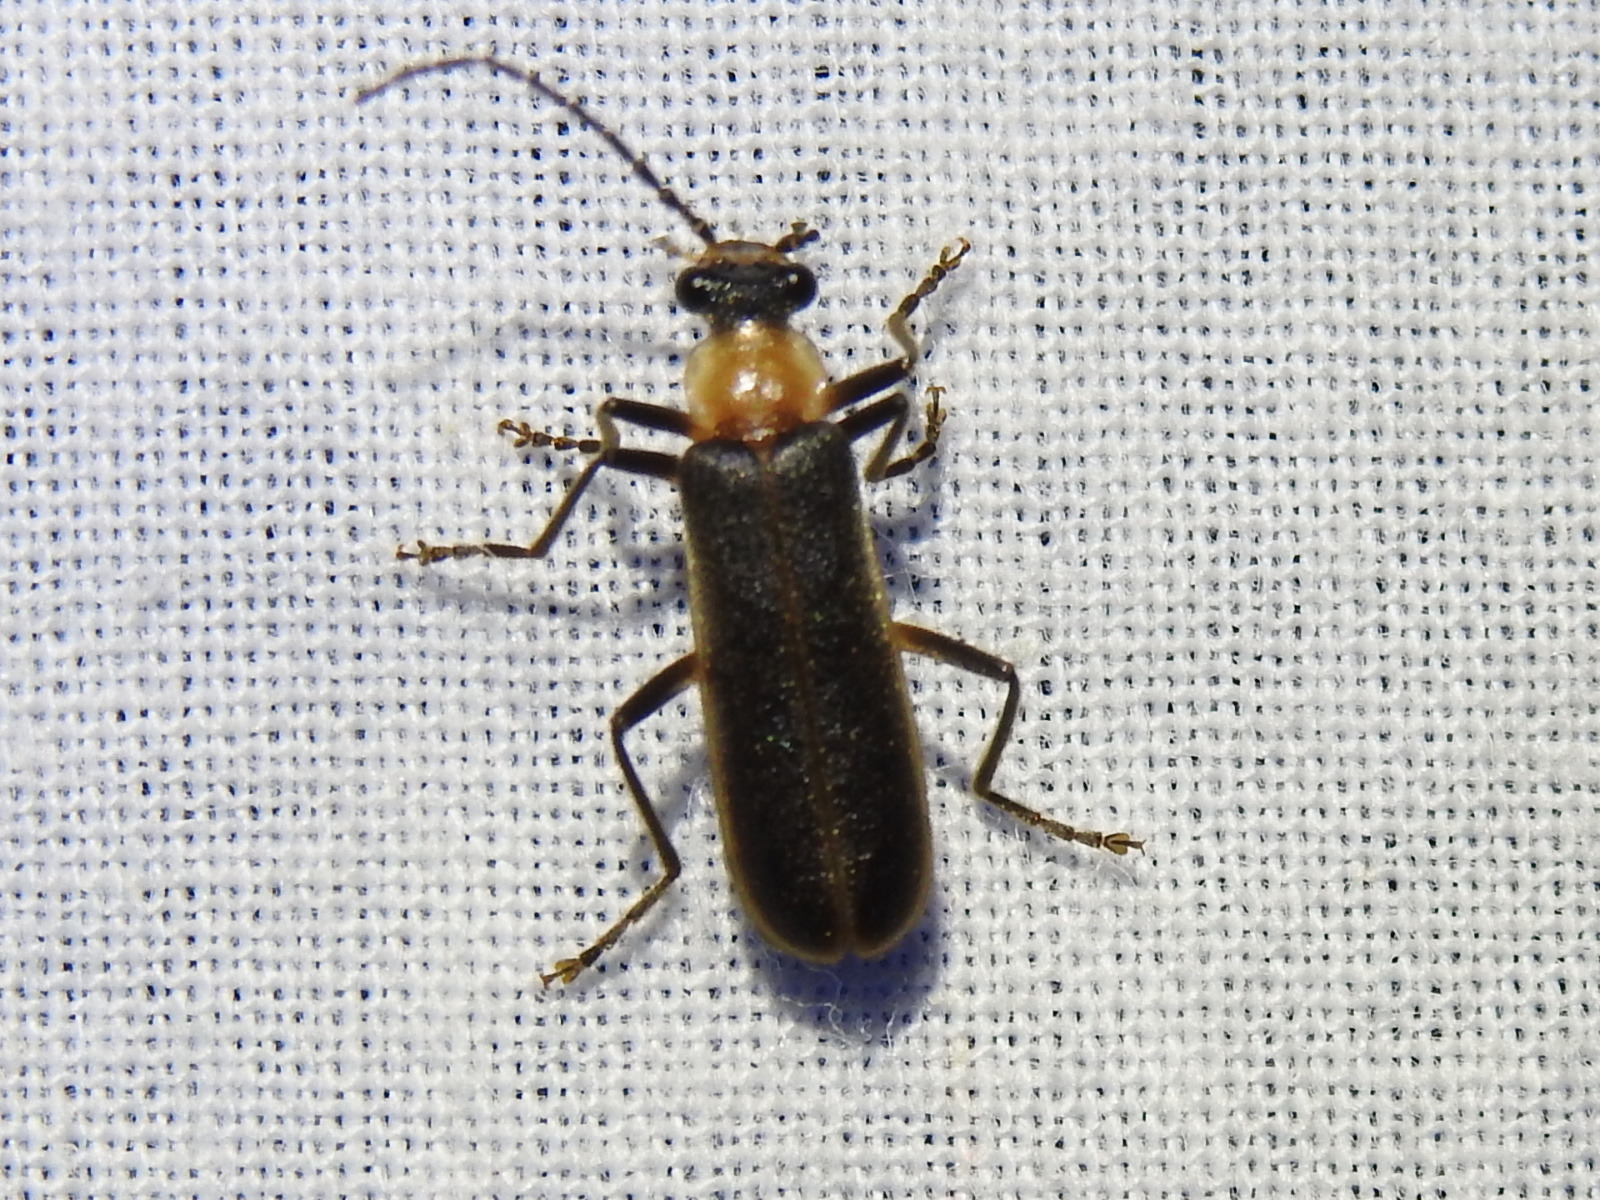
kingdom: Animalia
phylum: Arthropoda
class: Insecta
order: Coleoptera
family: Cantharidae
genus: Podabrus
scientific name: Podabrus flavicollis
